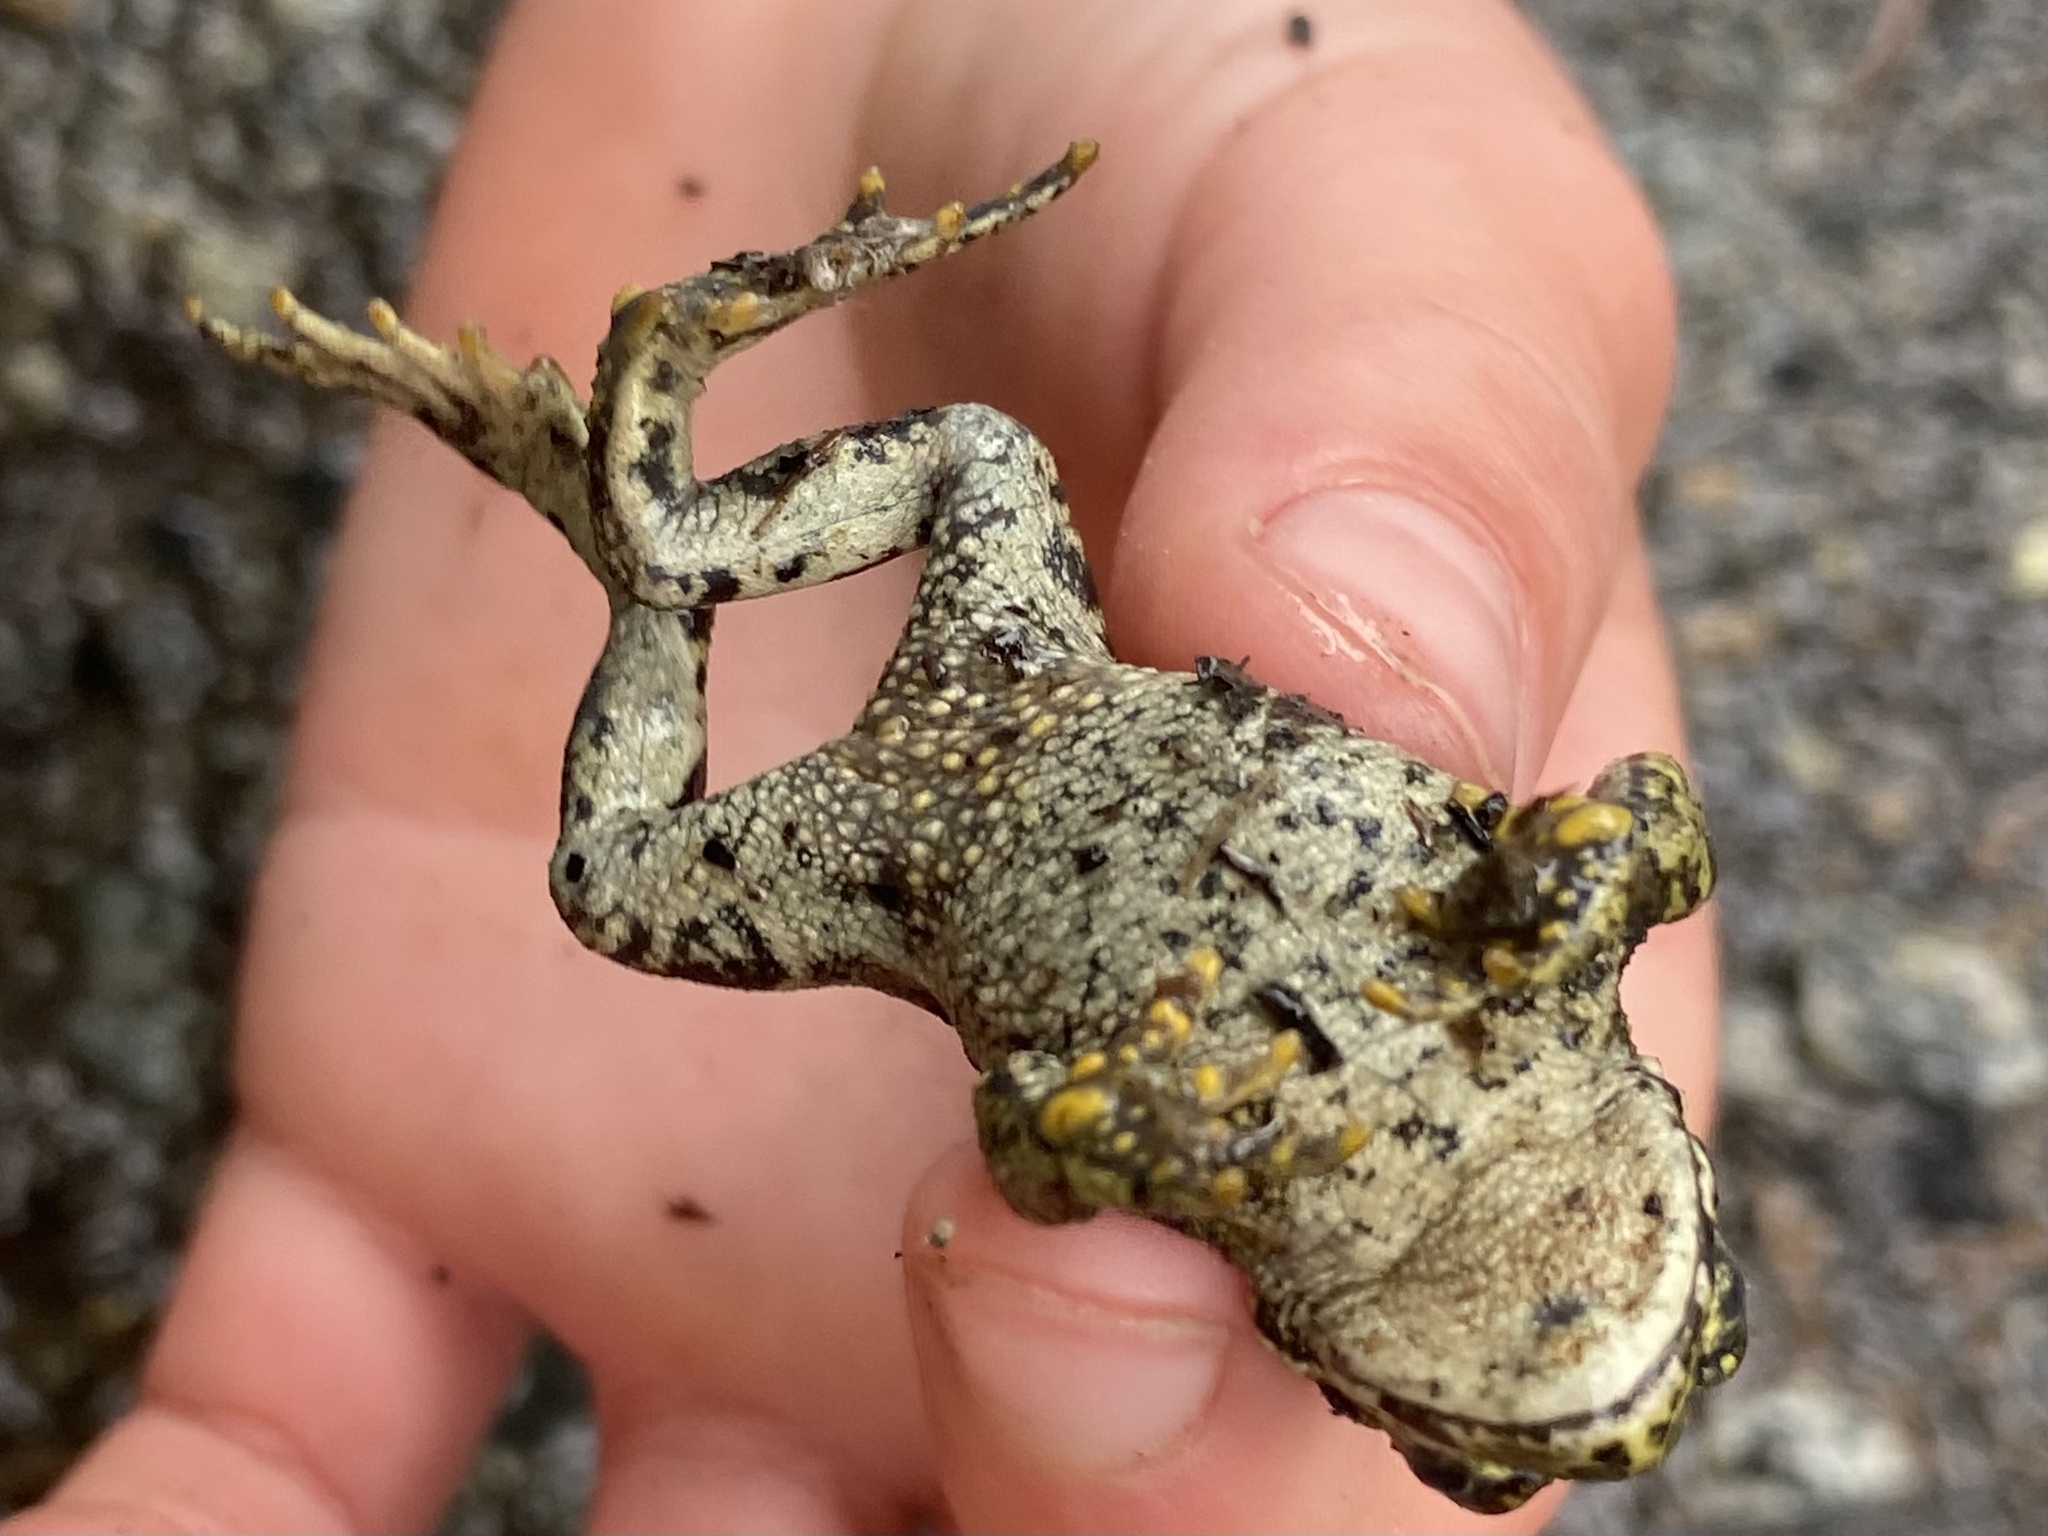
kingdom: Animalia
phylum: Chordata
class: Amphibia
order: Anura
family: Bufonidae
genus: Anaxyrus
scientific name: Anaxyrus boreas
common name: Western toad
